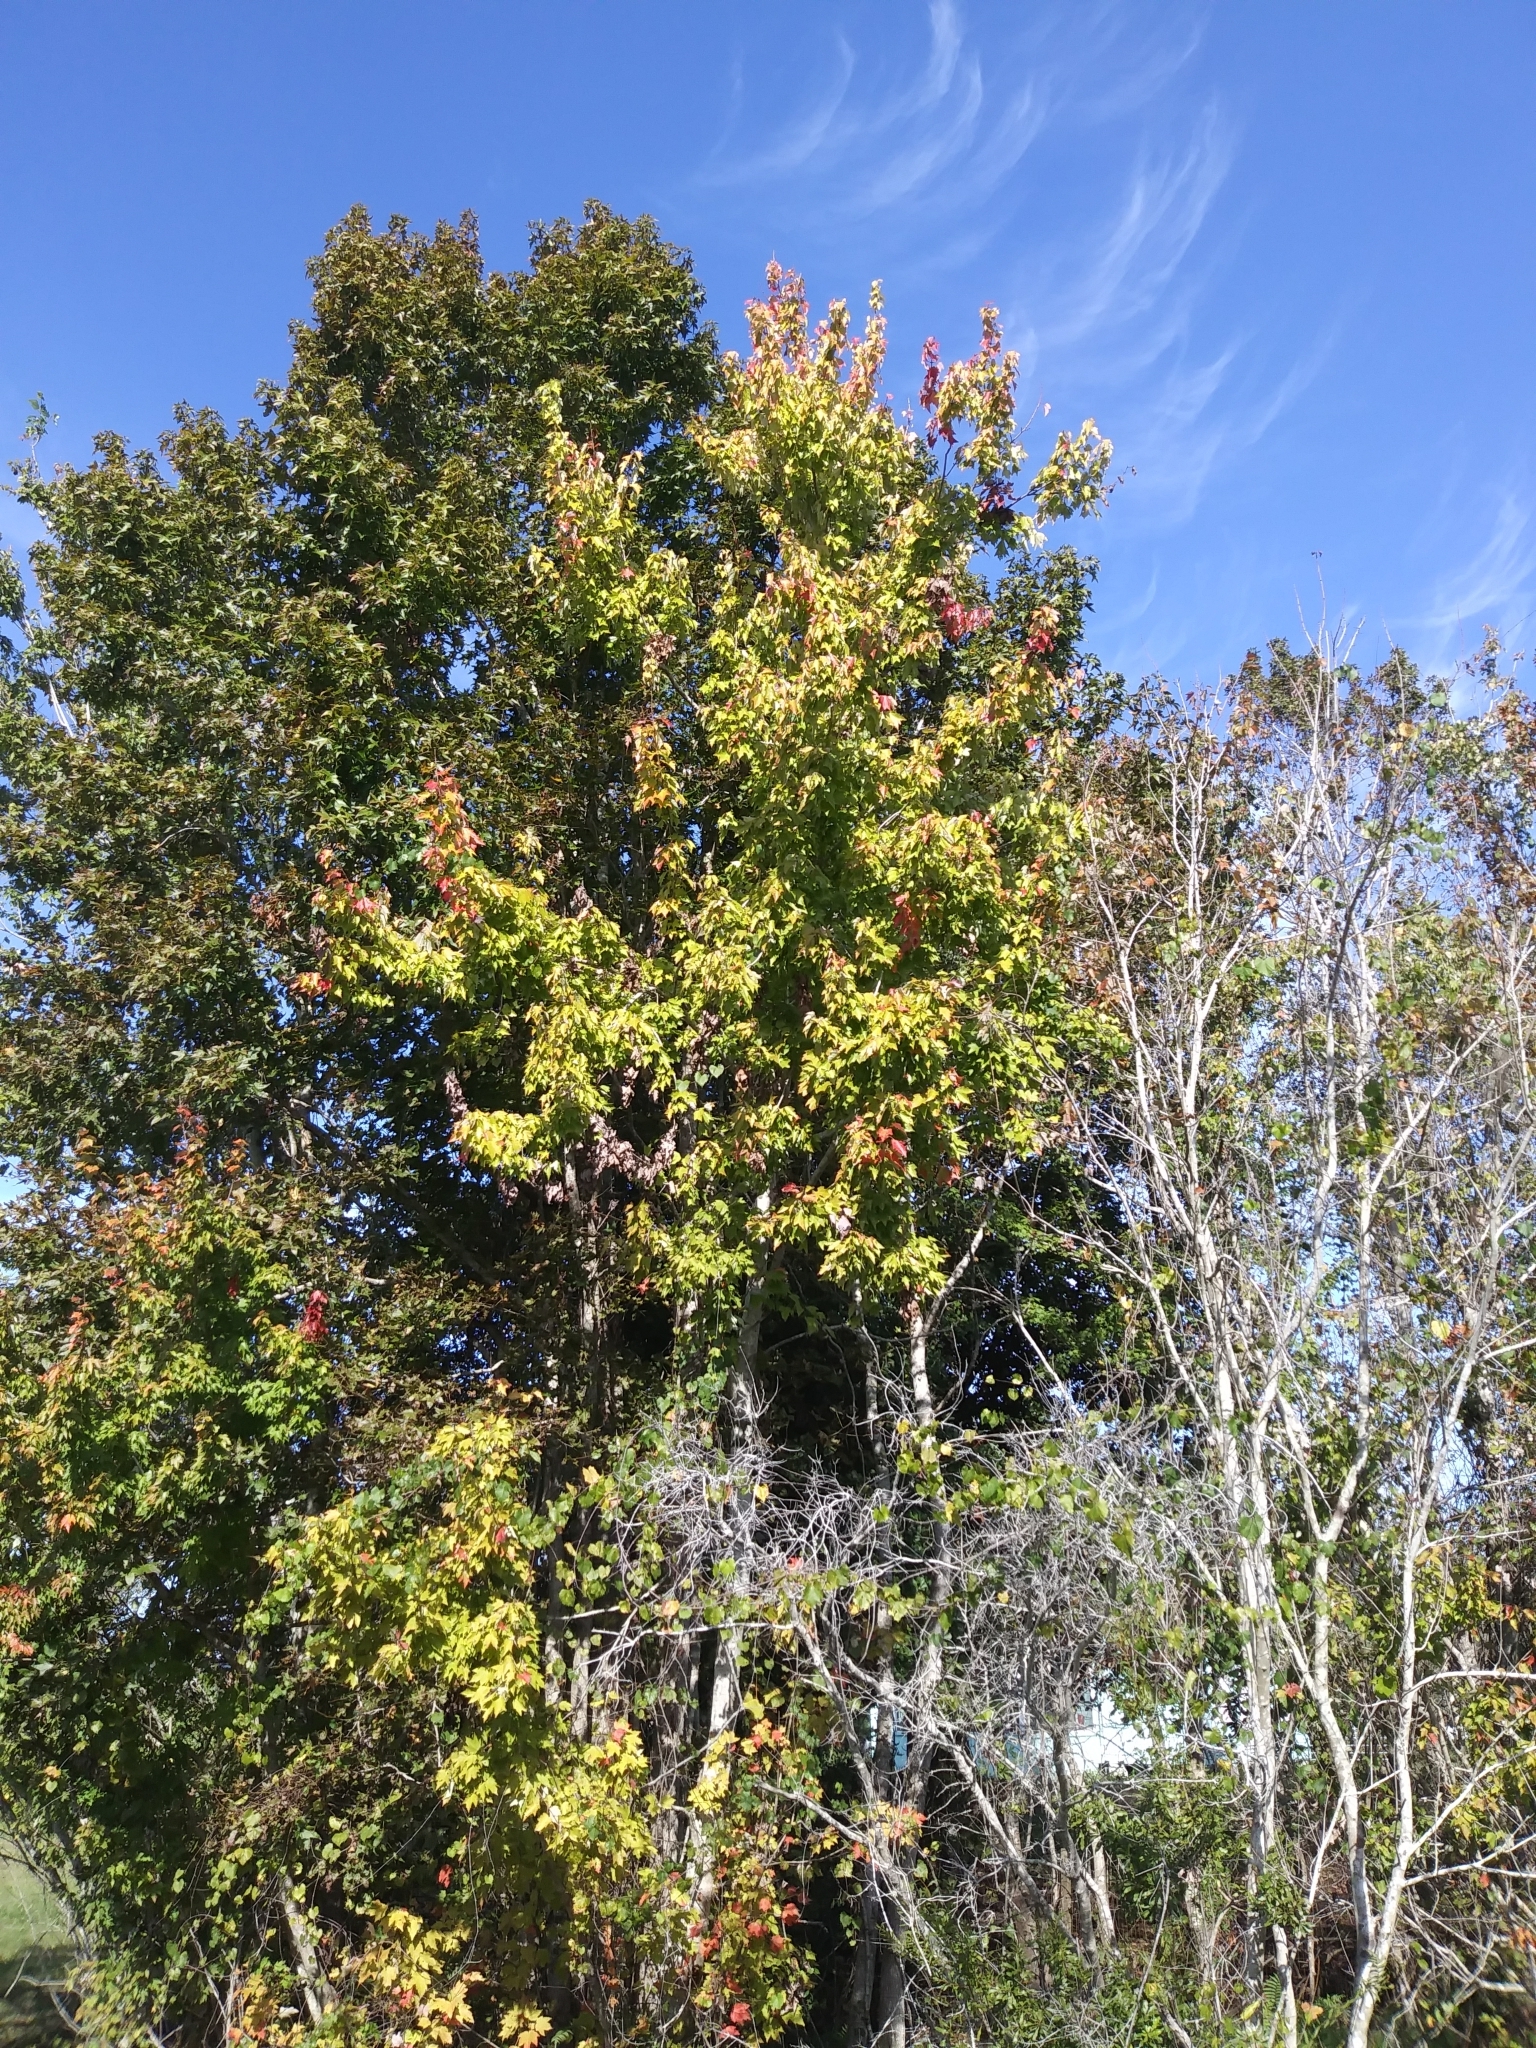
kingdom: Plantae
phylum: Tracheophyta
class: Magnoliopsida
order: Sapindales
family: Sapindaceae
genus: Acer
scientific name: Acer rubrum
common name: Red maple
